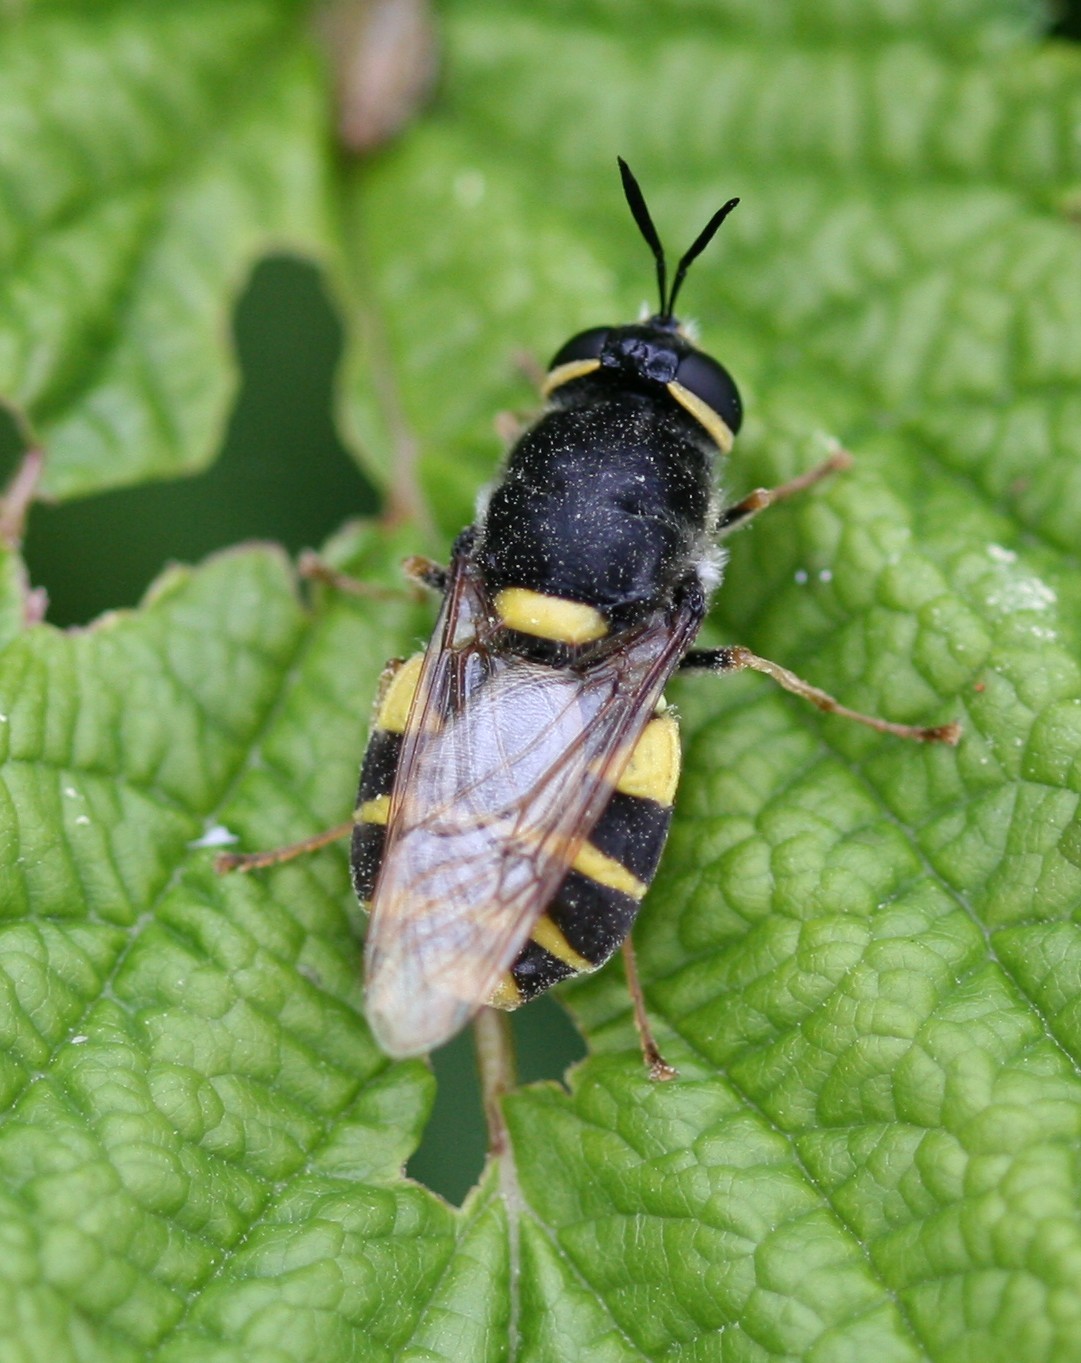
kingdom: Animalia
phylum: Arthropoda
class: Insecta
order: Diptera
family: Stratiomyidae
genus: Stratiomys
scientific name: Stratiomys potamida
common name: Banded general
